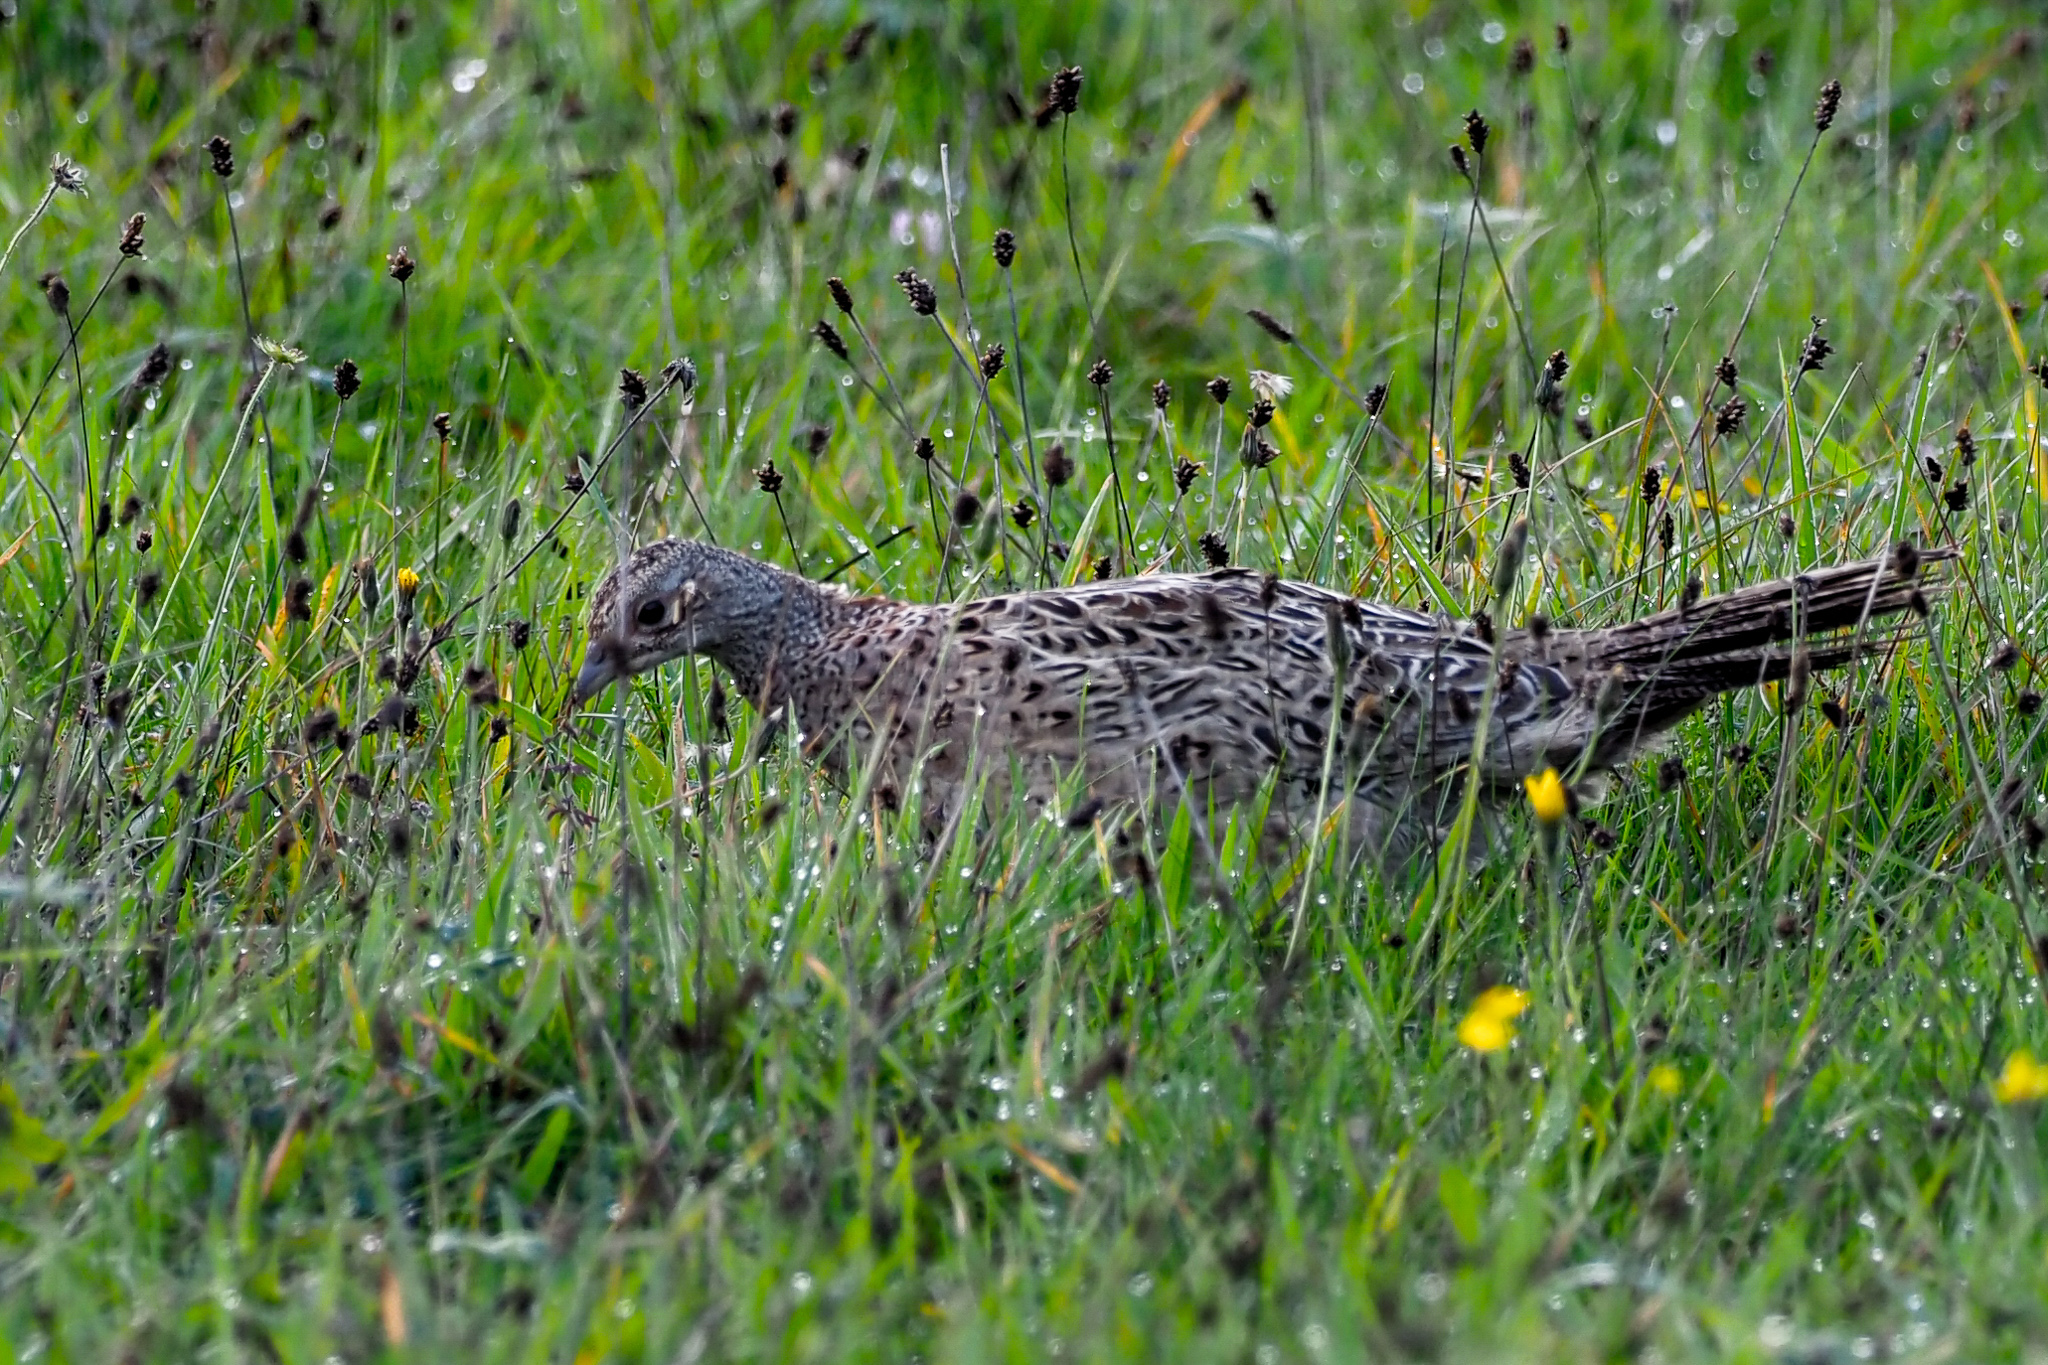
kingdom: Animalia
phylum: Chordata
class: Aves
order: Galliformes
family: Phasianidae
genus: Phasianus
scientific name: Phasianus colchicus
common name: Common pheasant
